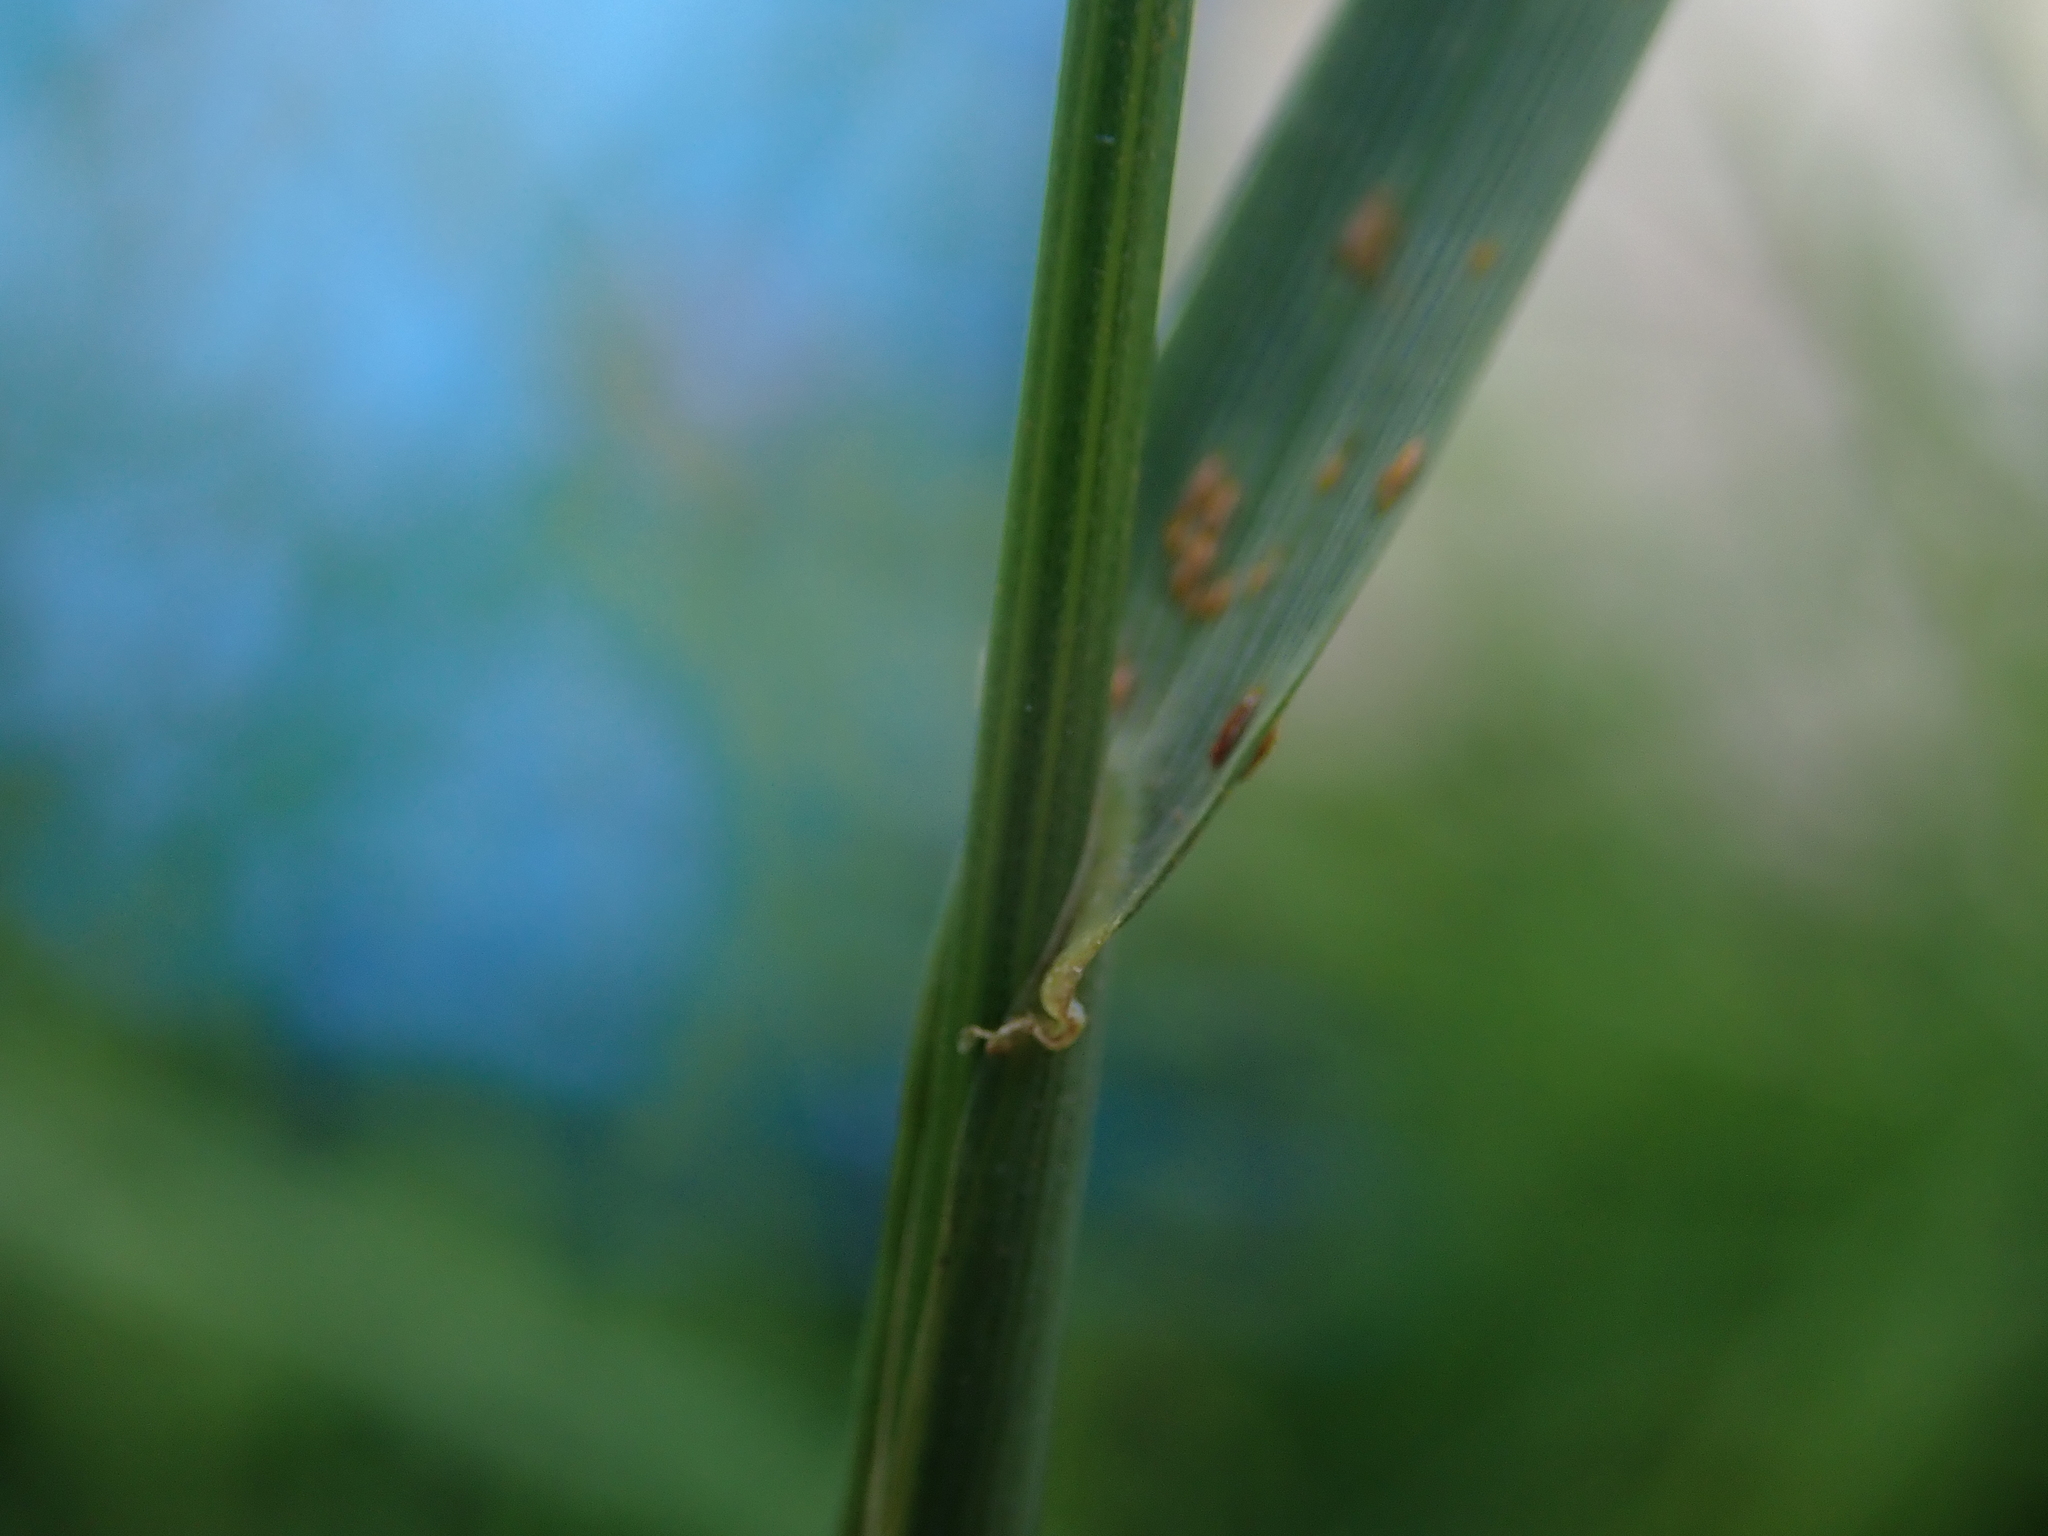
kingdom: Plantae
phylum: Tracheophyta
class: Liliopsida
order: Poales
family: Poaceae
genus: Lolium
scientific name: Lolium perenne
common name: Perennial ryegrass
